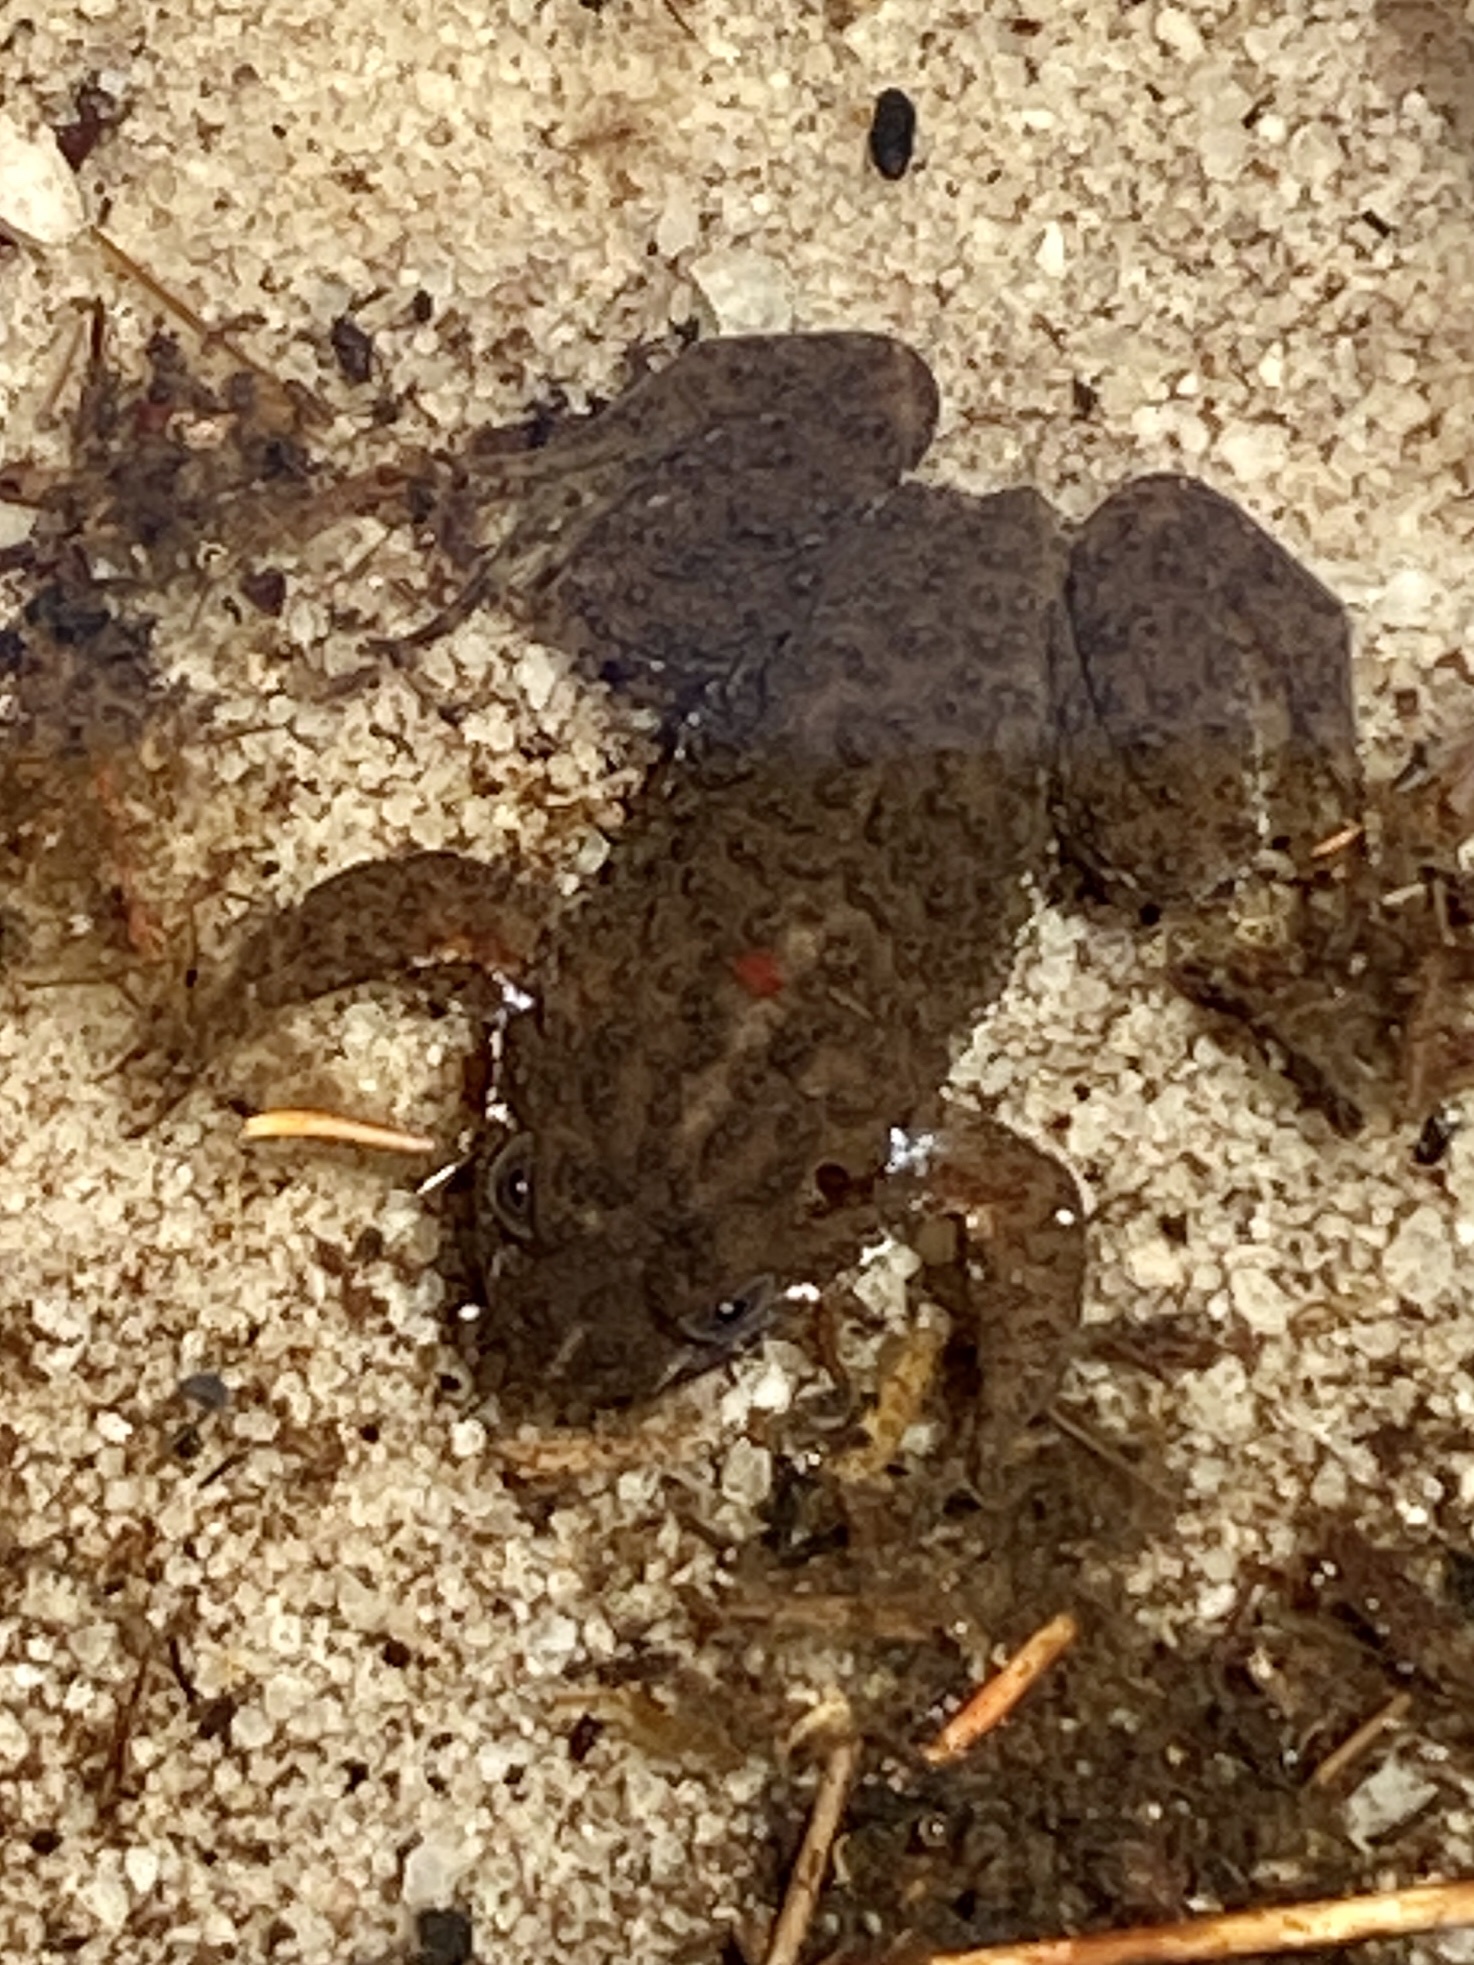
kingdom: Animalia
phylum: Chordata
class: Amphibia
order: Anura
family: Pyxicephalidae
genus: Poyntonia
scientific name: Poyntonia paludicola
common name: Montane marsh frog
